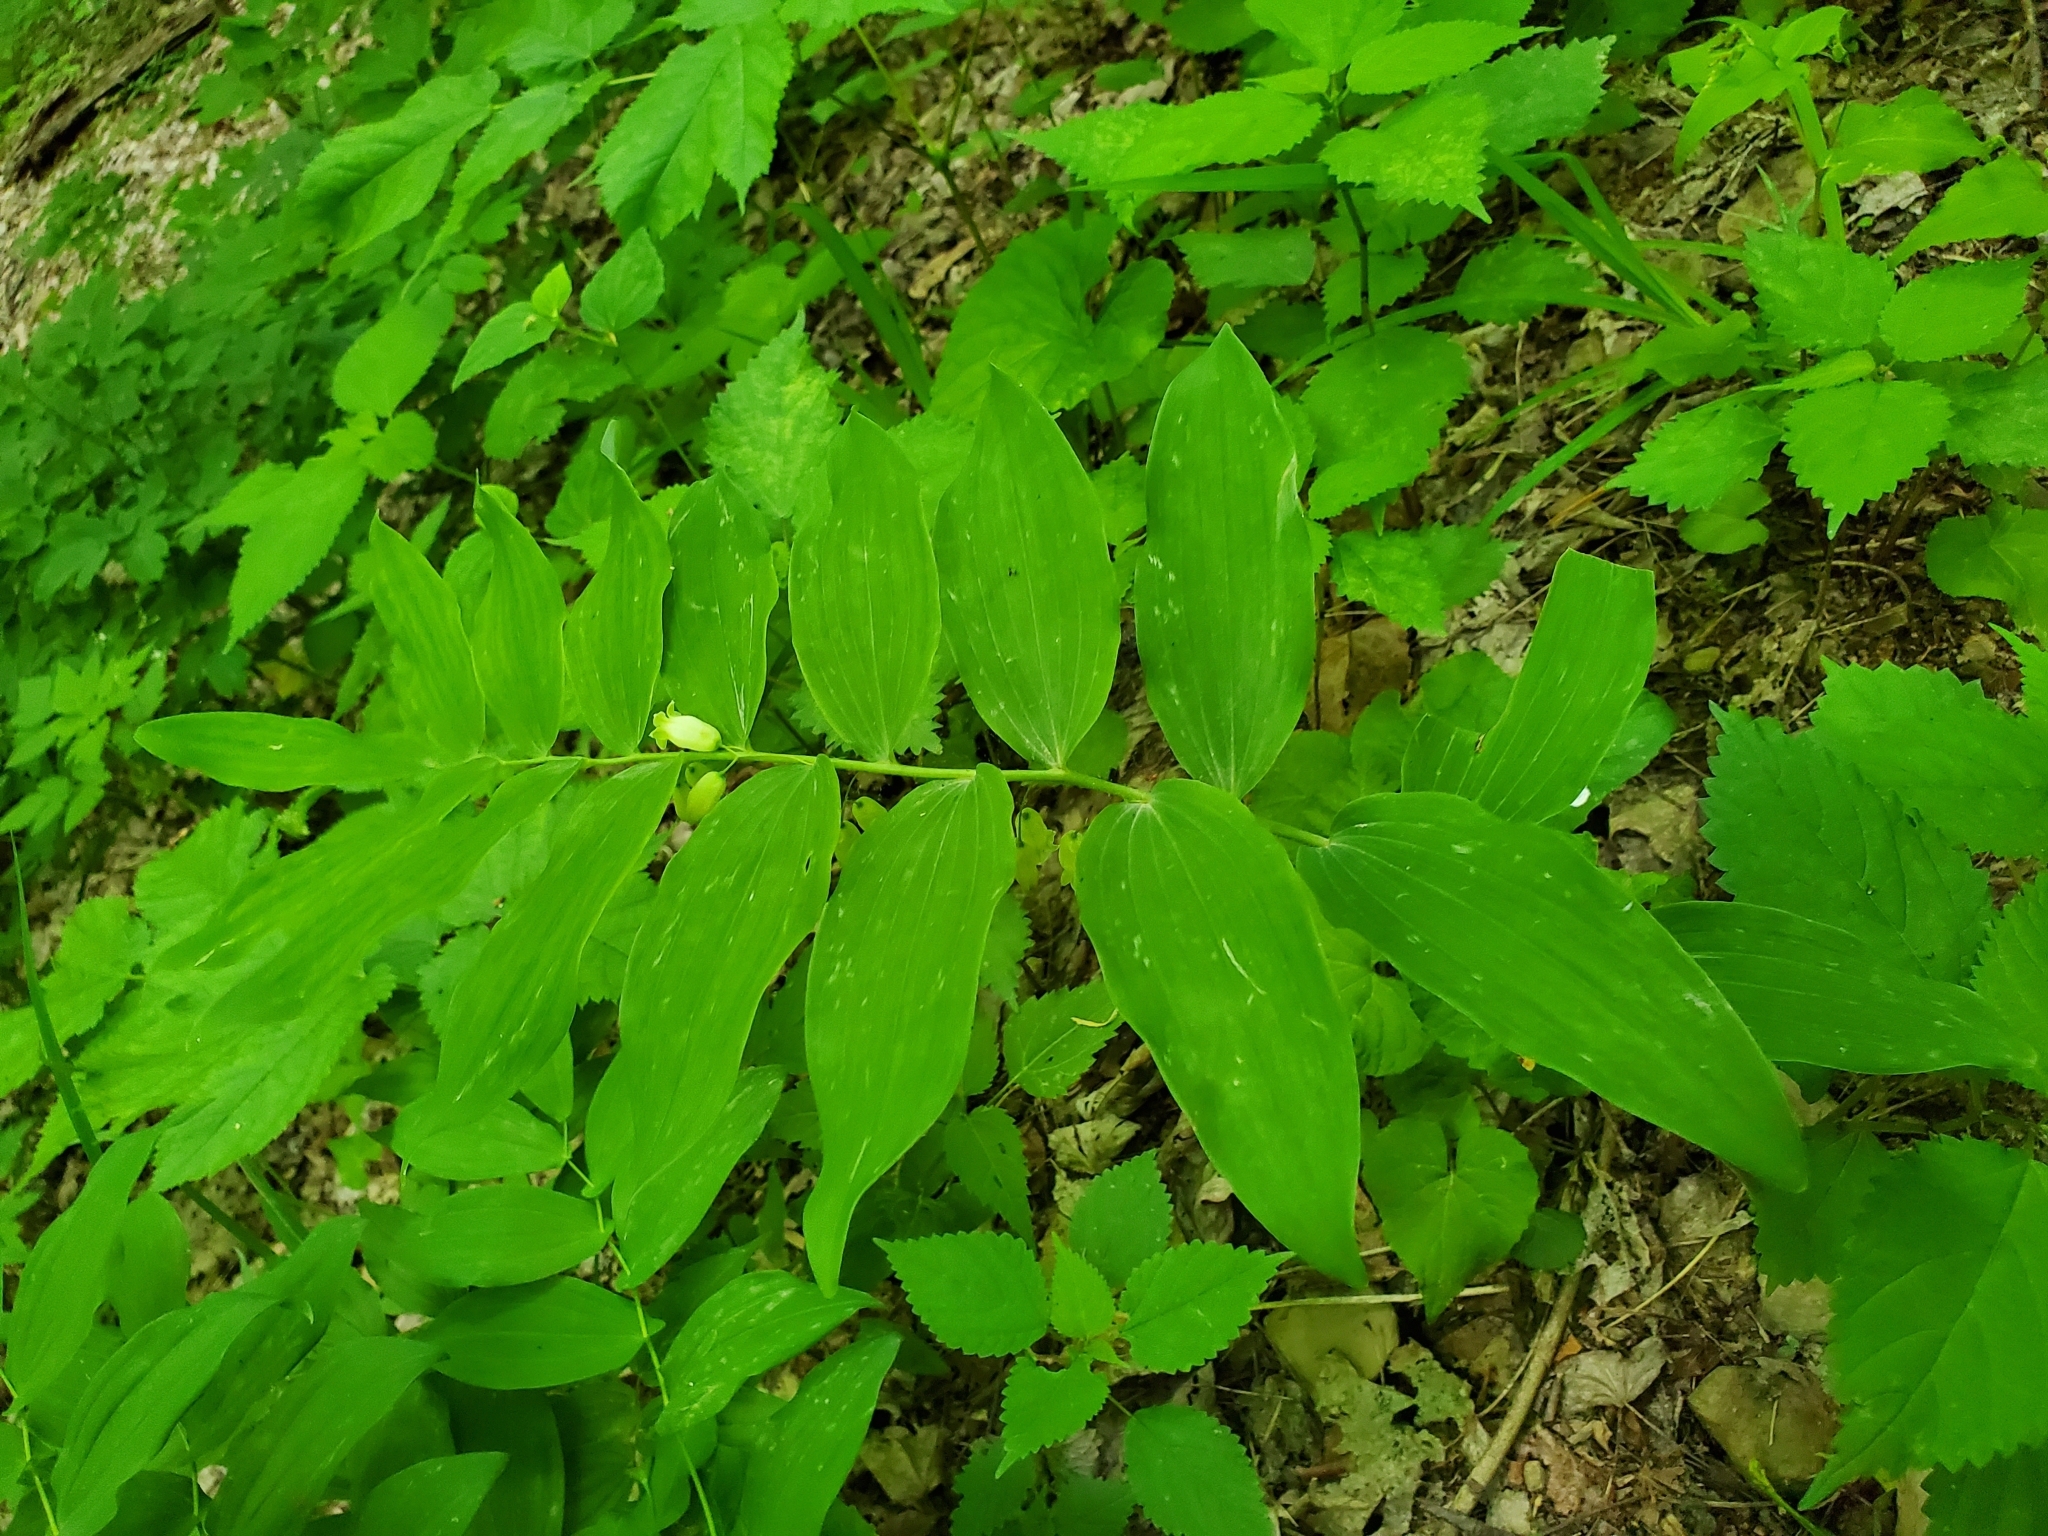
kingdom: Plantae
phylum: Tracheophyta
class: Liliopsida
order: Asparagales
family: Asparagaceae
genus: Polygonatum
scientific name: Polygonatum biflorum
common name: American solomon's-seal
